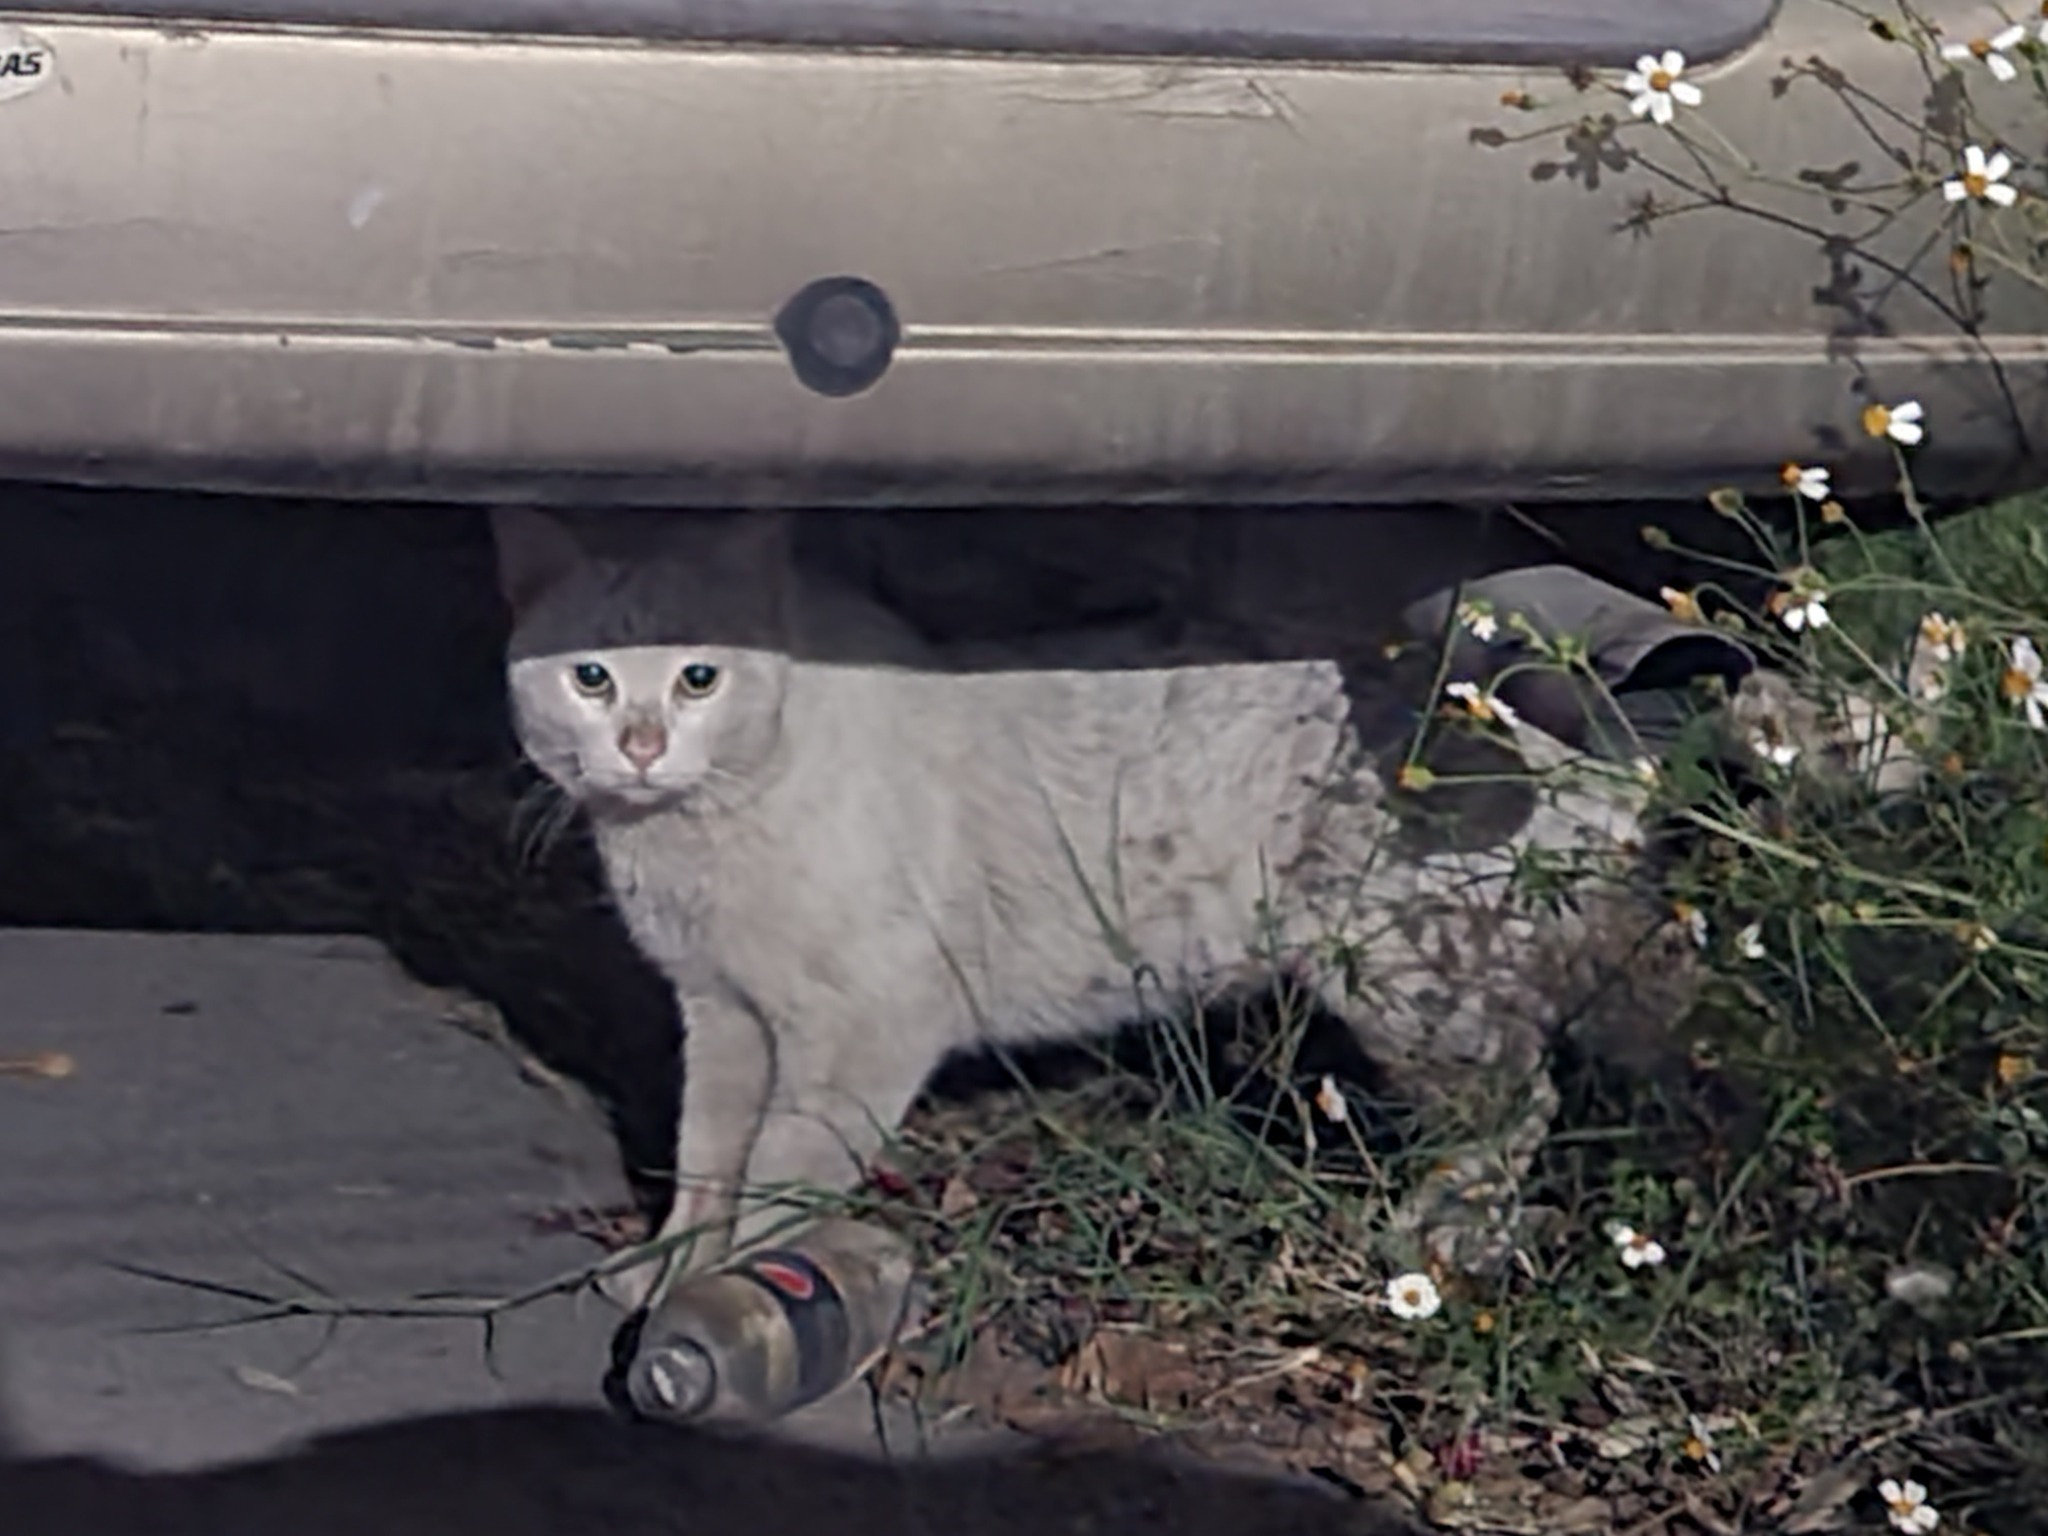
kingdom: Animalia
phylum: Chordata
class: Mammalia
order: Carnivora
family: Felidae
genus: Felis
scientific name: Felis catus
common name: Domestic cat
